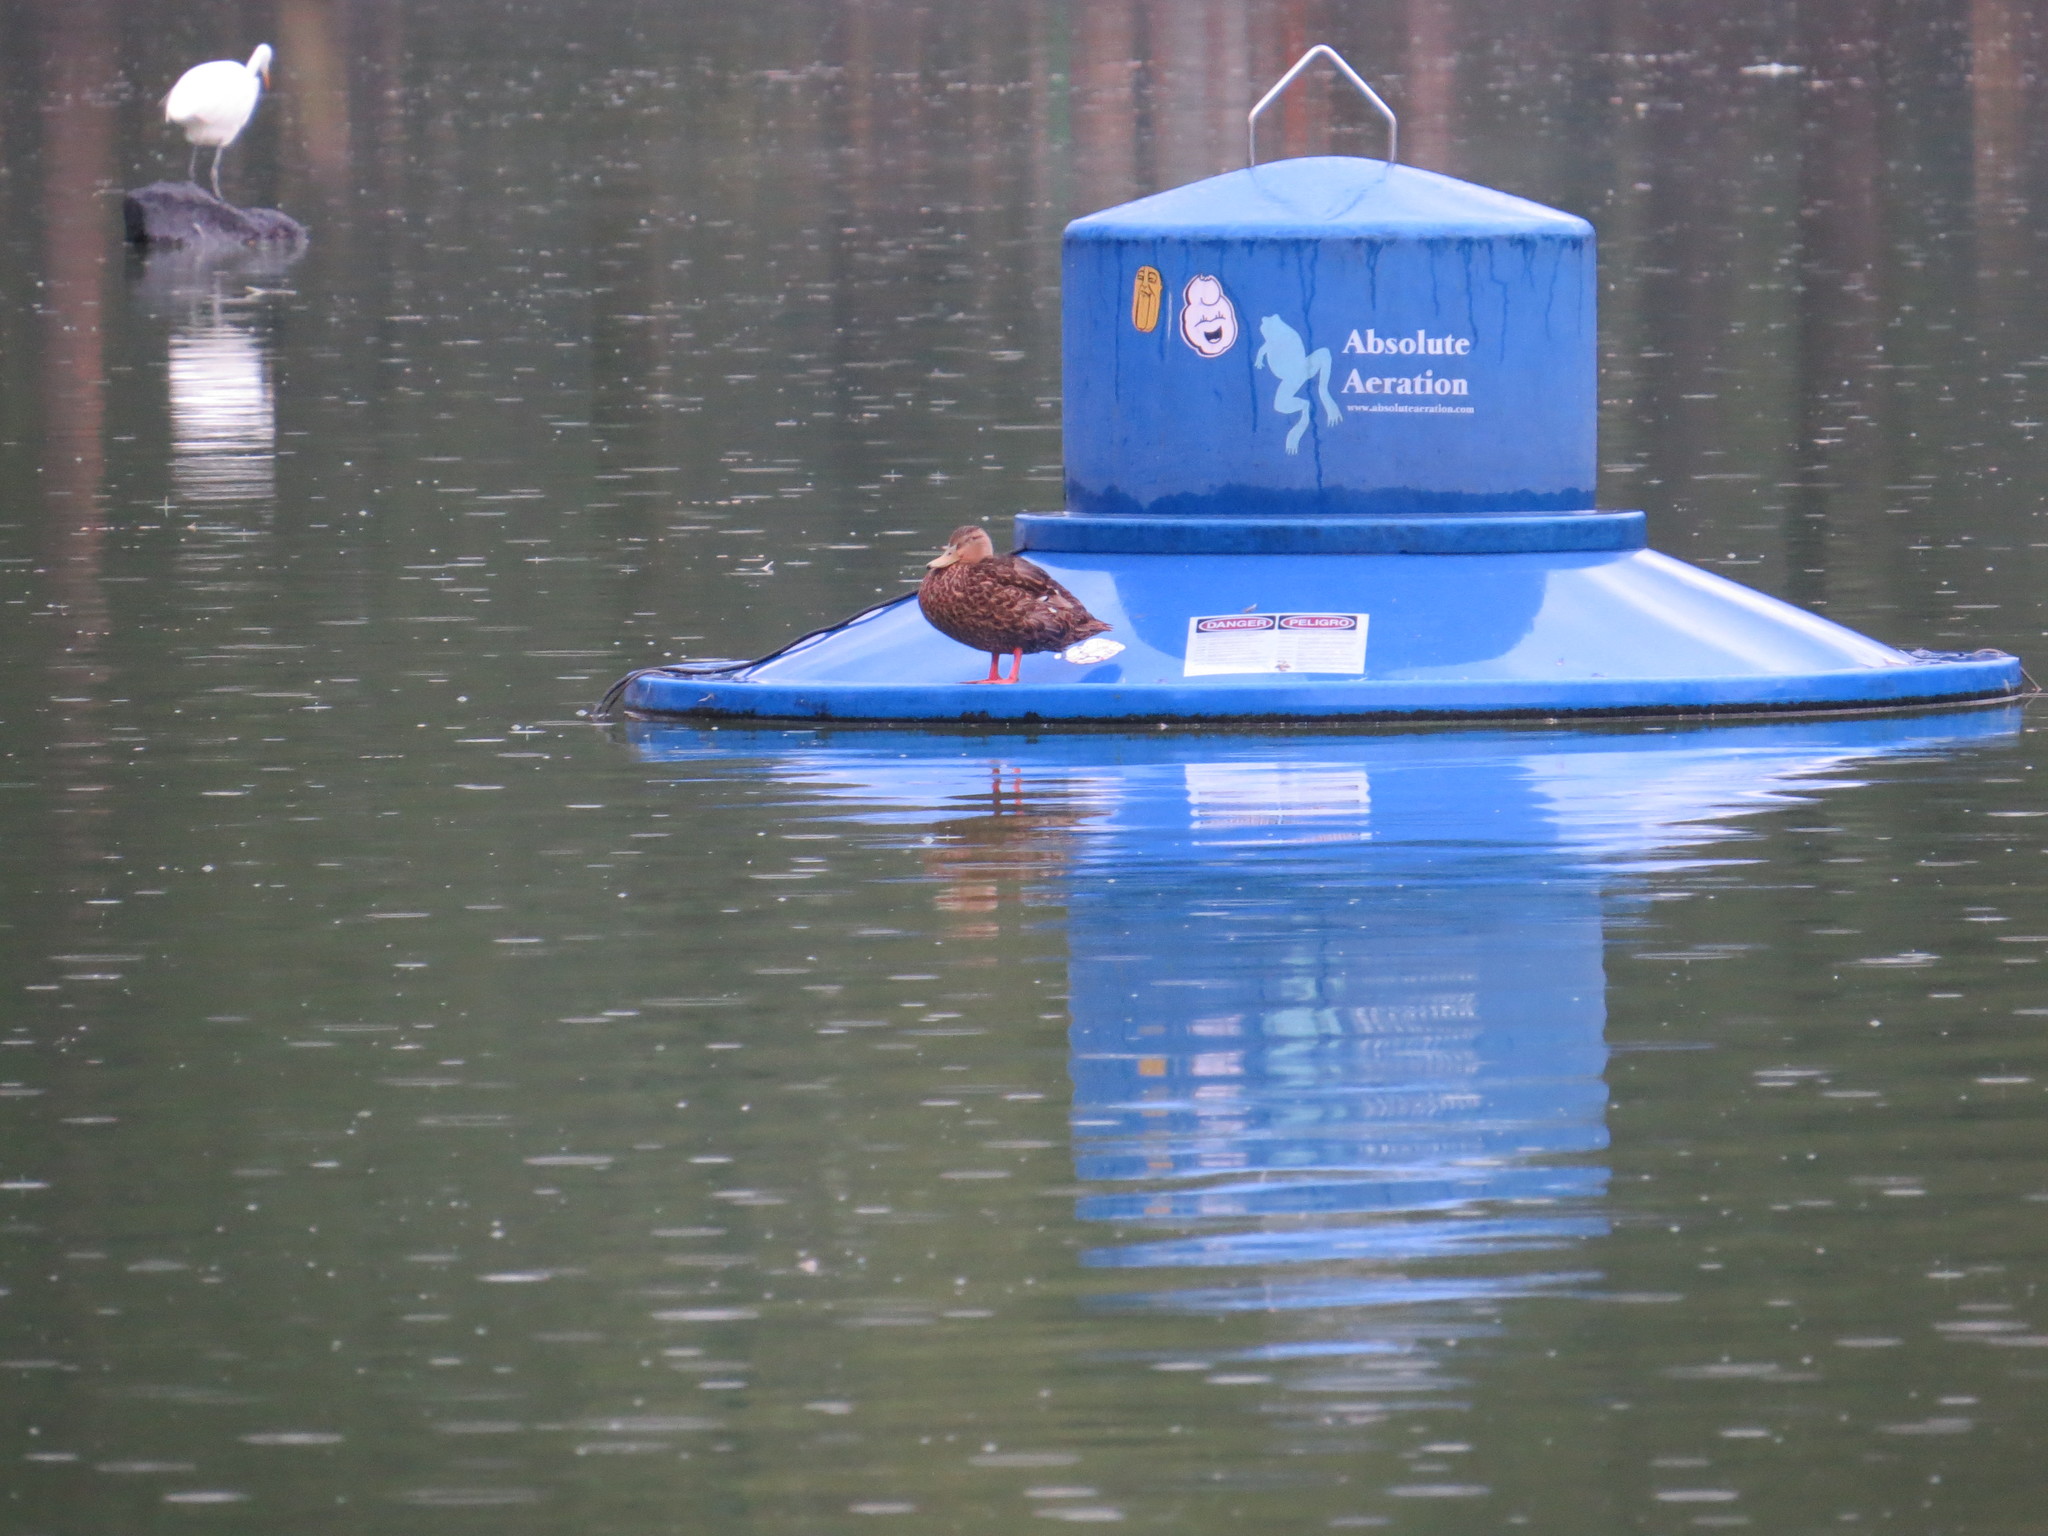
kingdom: Animalia
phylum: Chordata
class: Aves
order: Anseriformes
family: Anatidae
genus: Anas
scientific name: Anas diazi
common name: Mexican duck
